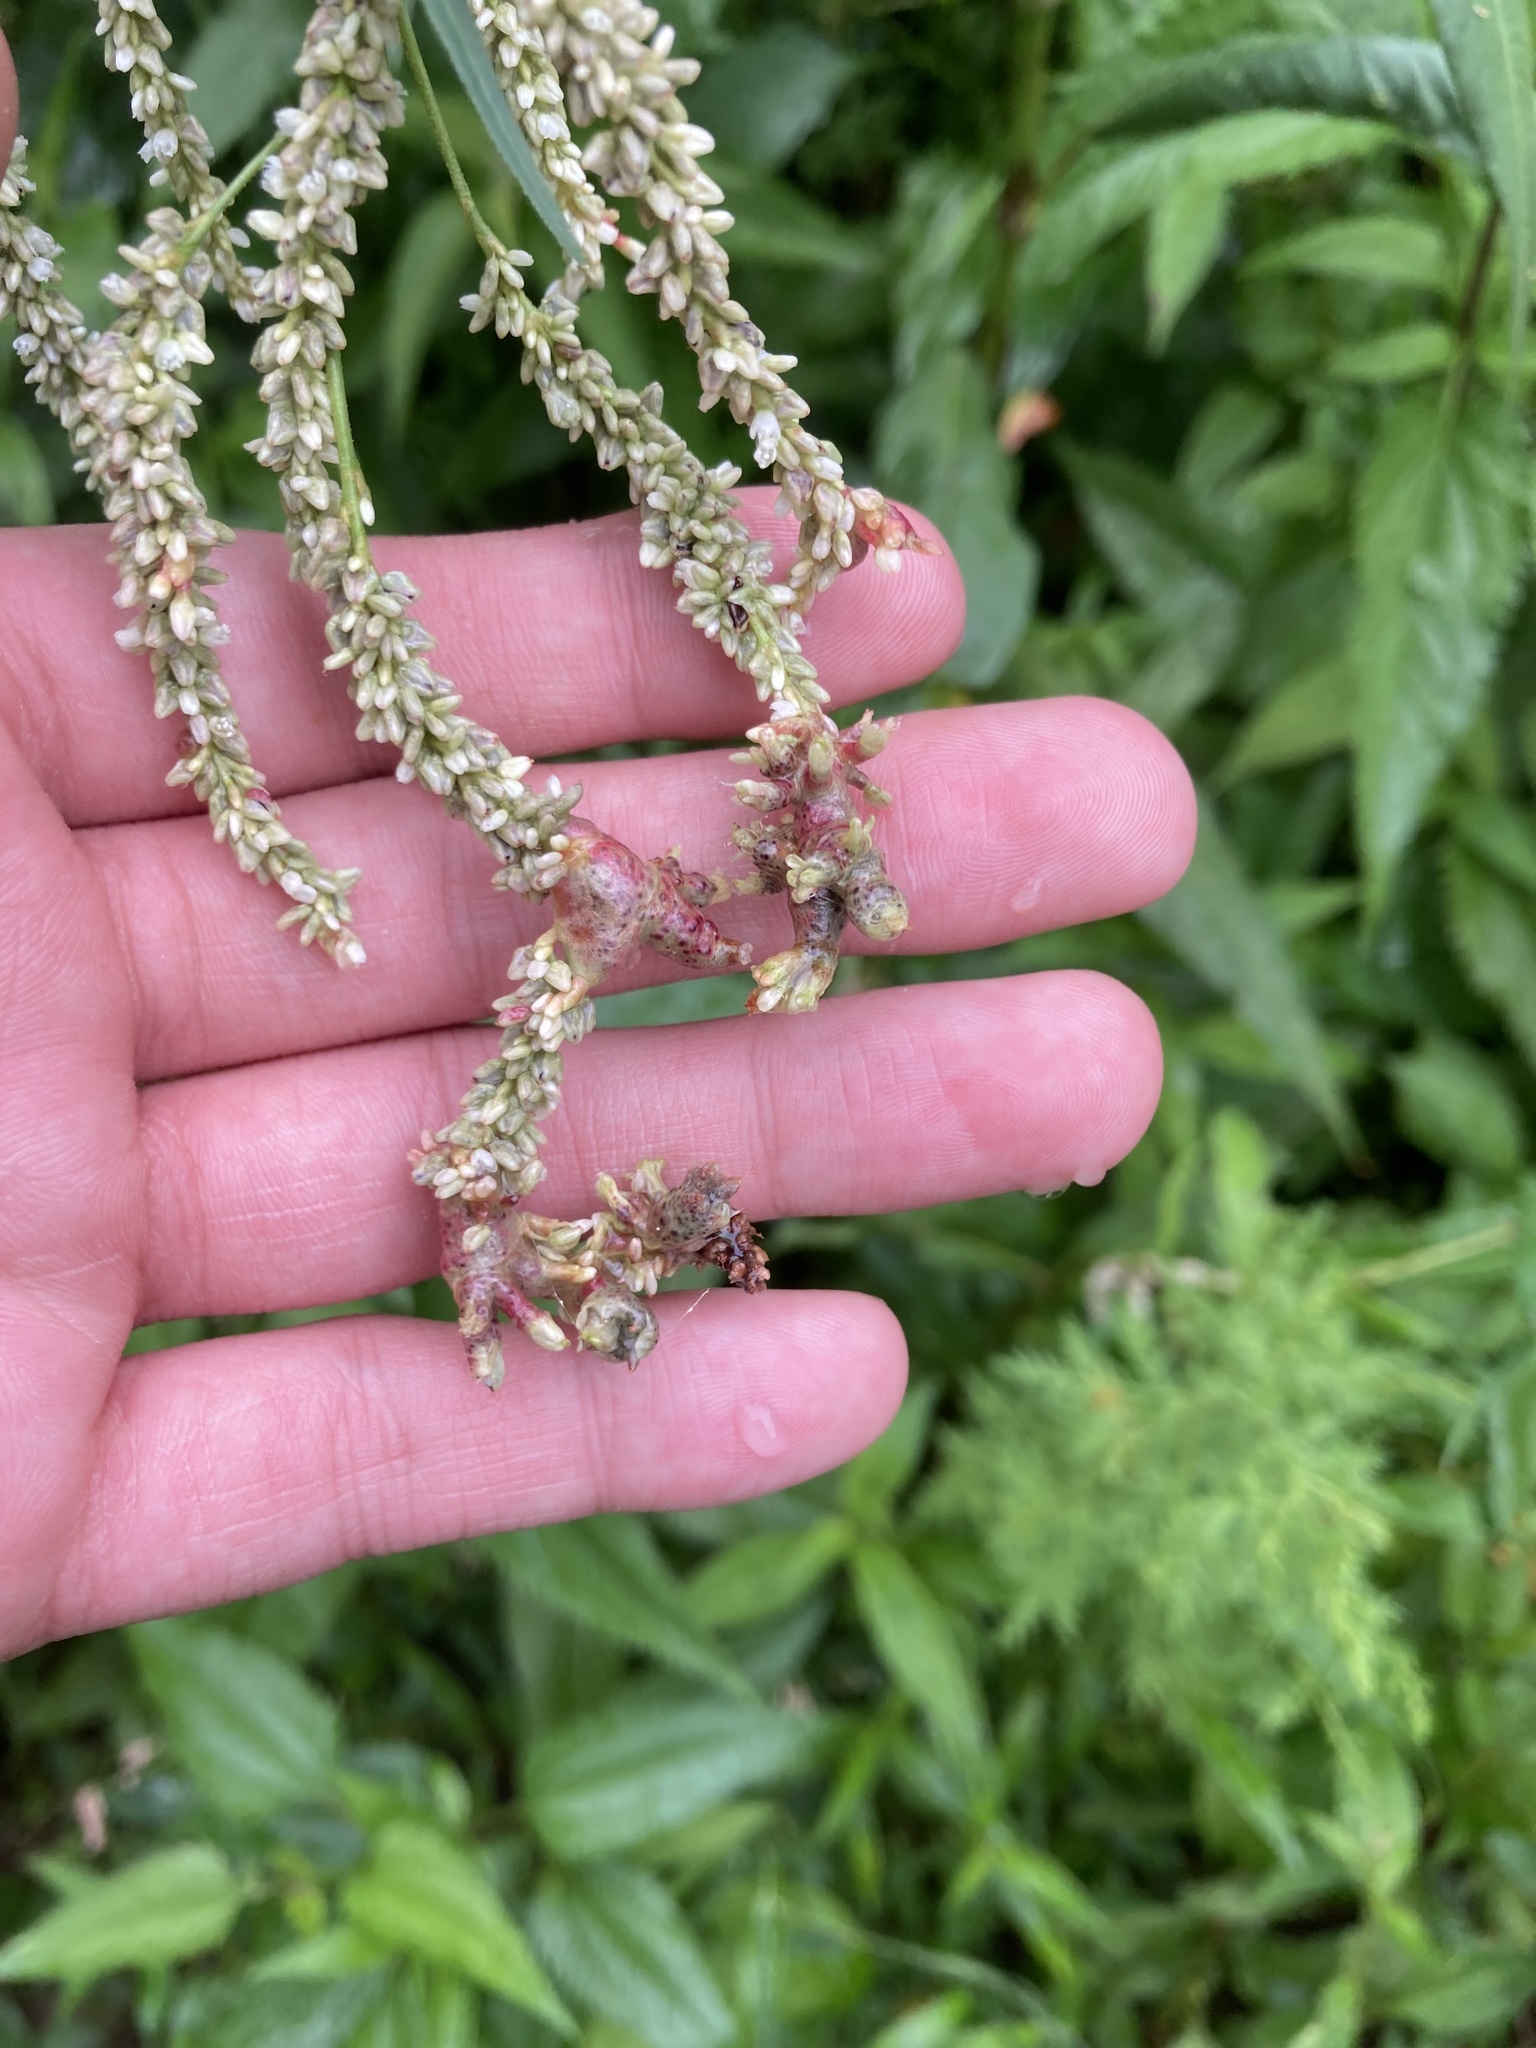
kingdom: Fungi
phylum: Basidiomycota
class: Ustilaginomycetes
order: Ustilaginales
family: Ustilaginaceae
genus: Melanopsichium
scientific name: Melanopsichium pennsylvanicum
